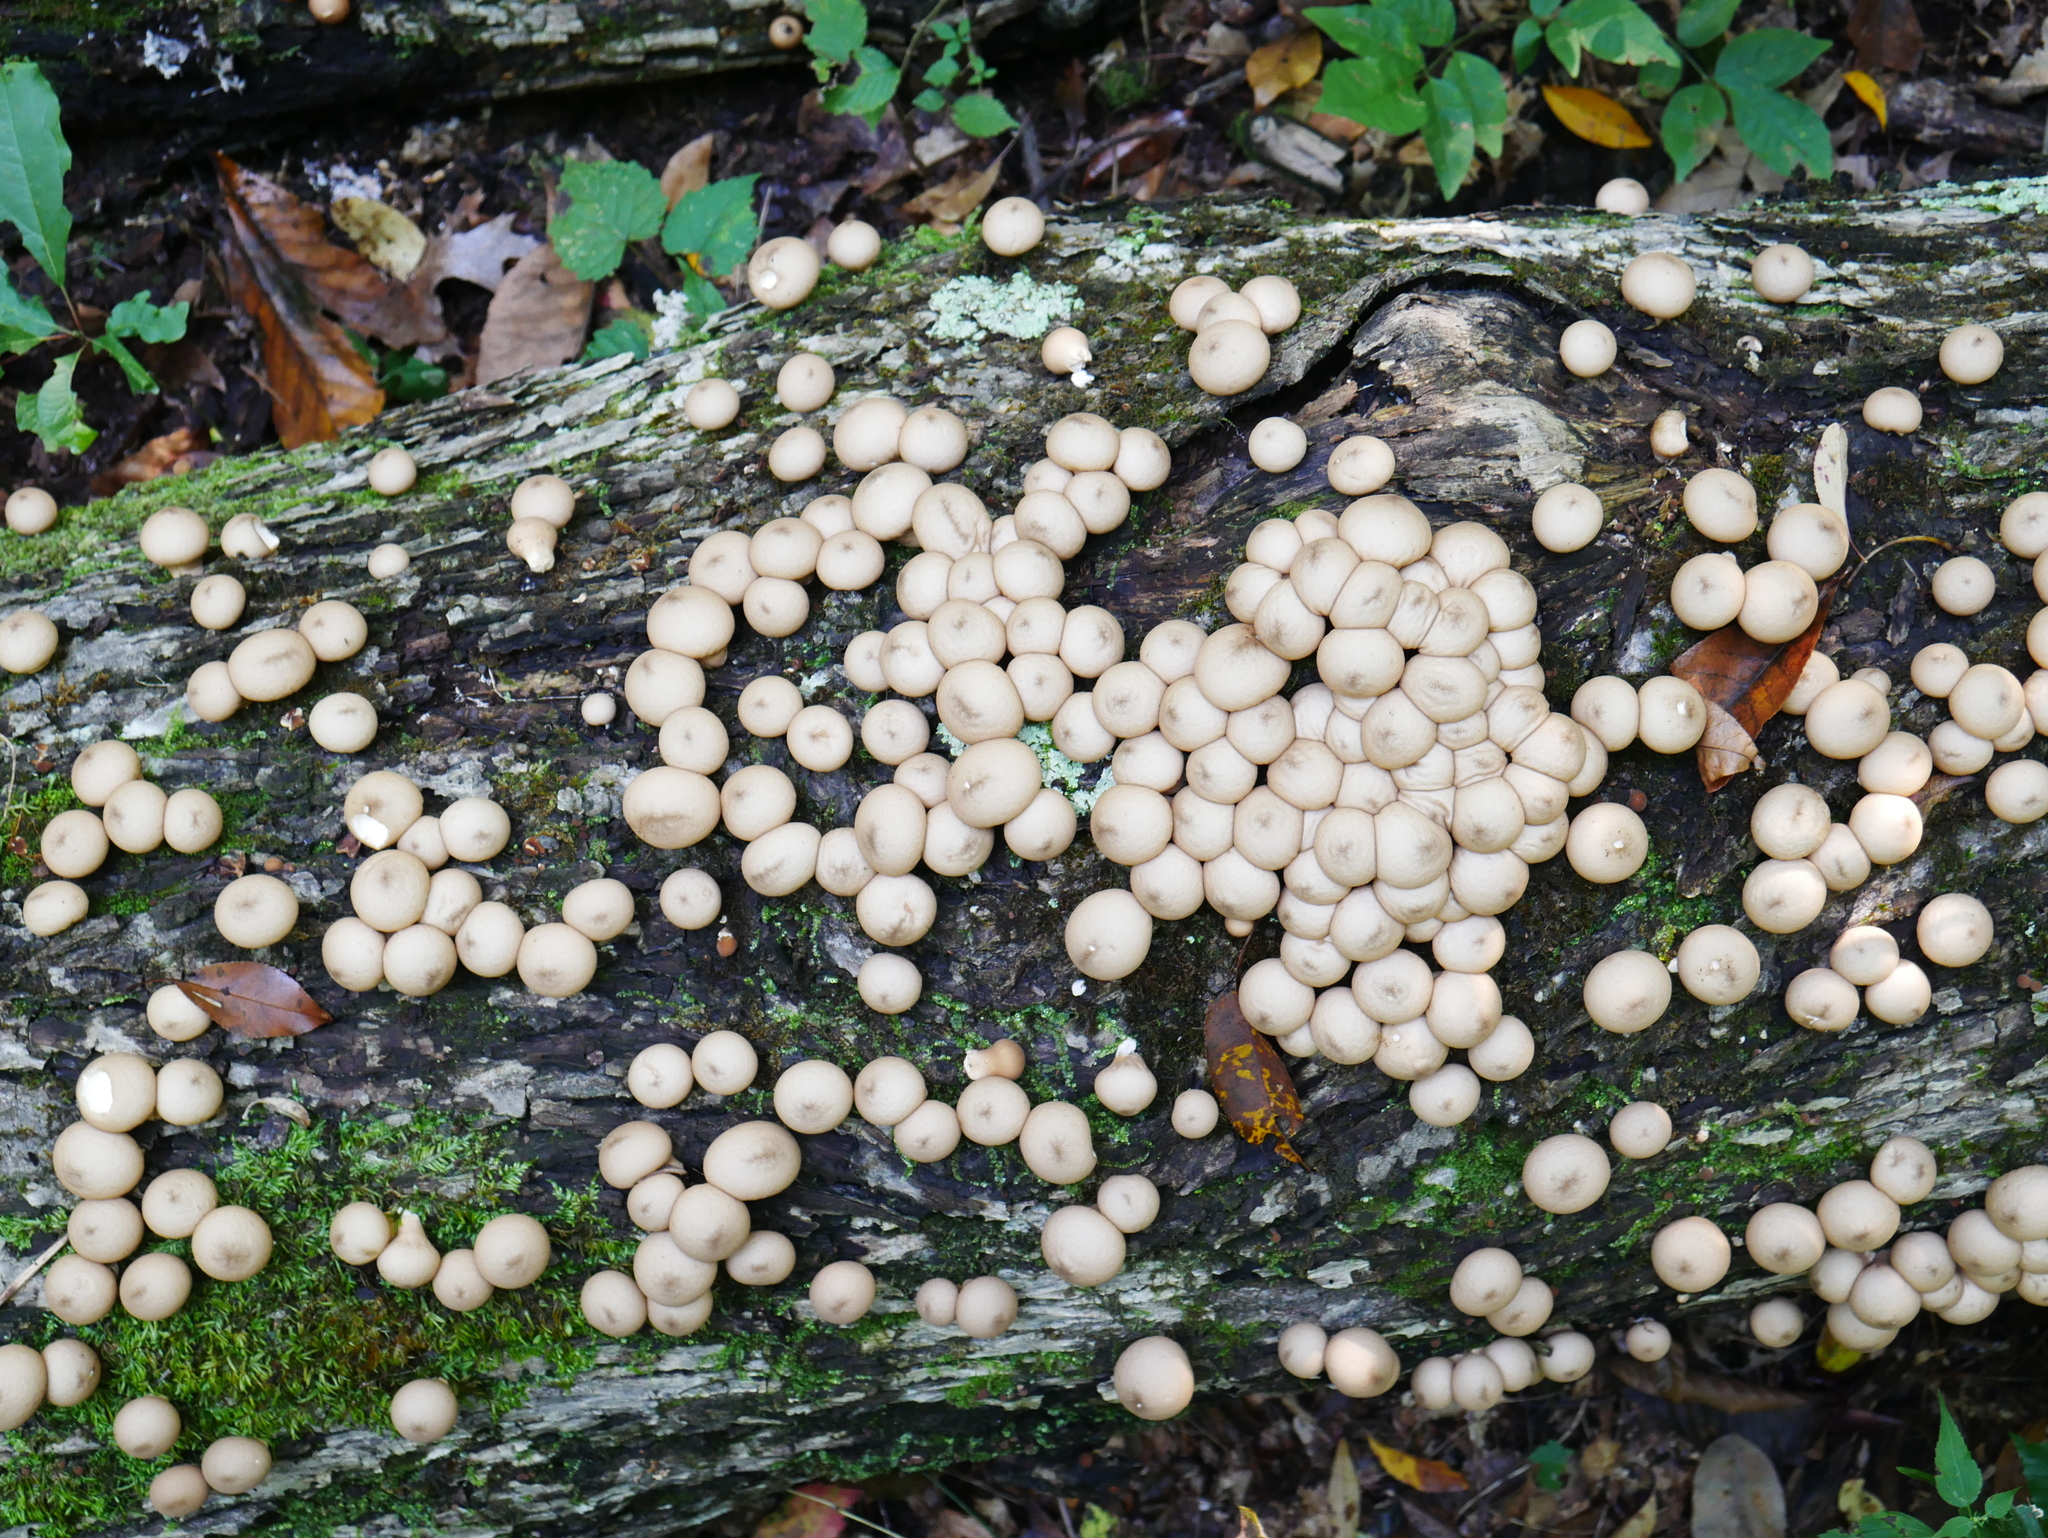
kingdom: Fungi
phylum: Basidiomycota
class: Agaricomycetes
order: Agaricales
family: Lycoperdaceae
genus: Apioperdon
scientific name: Apioperdon pyriforme
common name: Pear-shaped puffball
